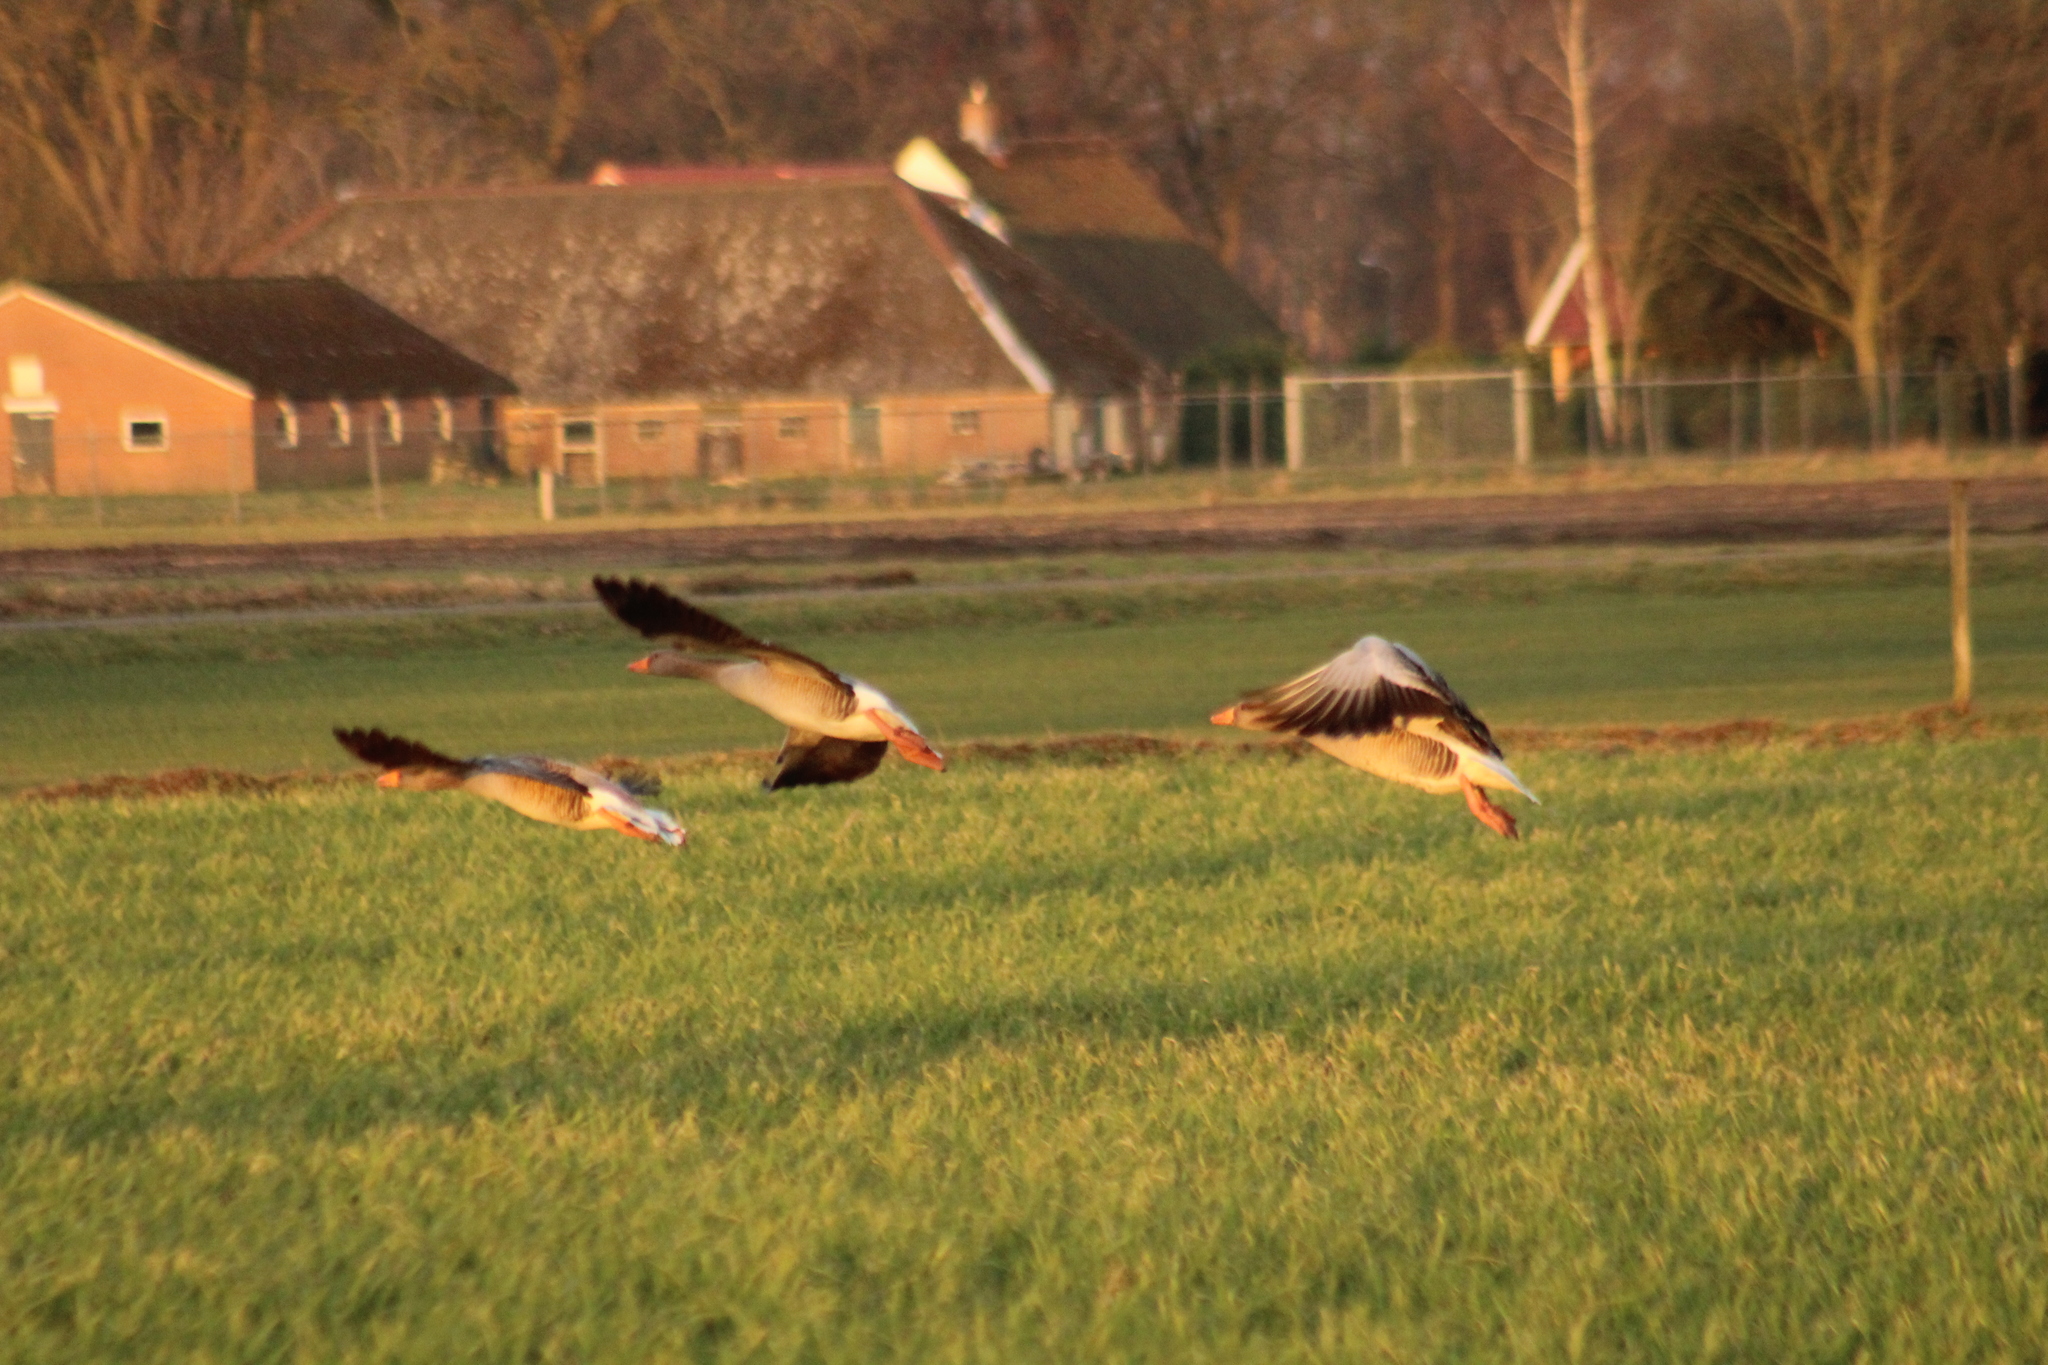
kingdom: Animalia
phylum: Chordata
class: Aves
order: Anseriformes
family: Anatidae
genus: Anser
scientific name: Anser anser
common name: Greylag goose
